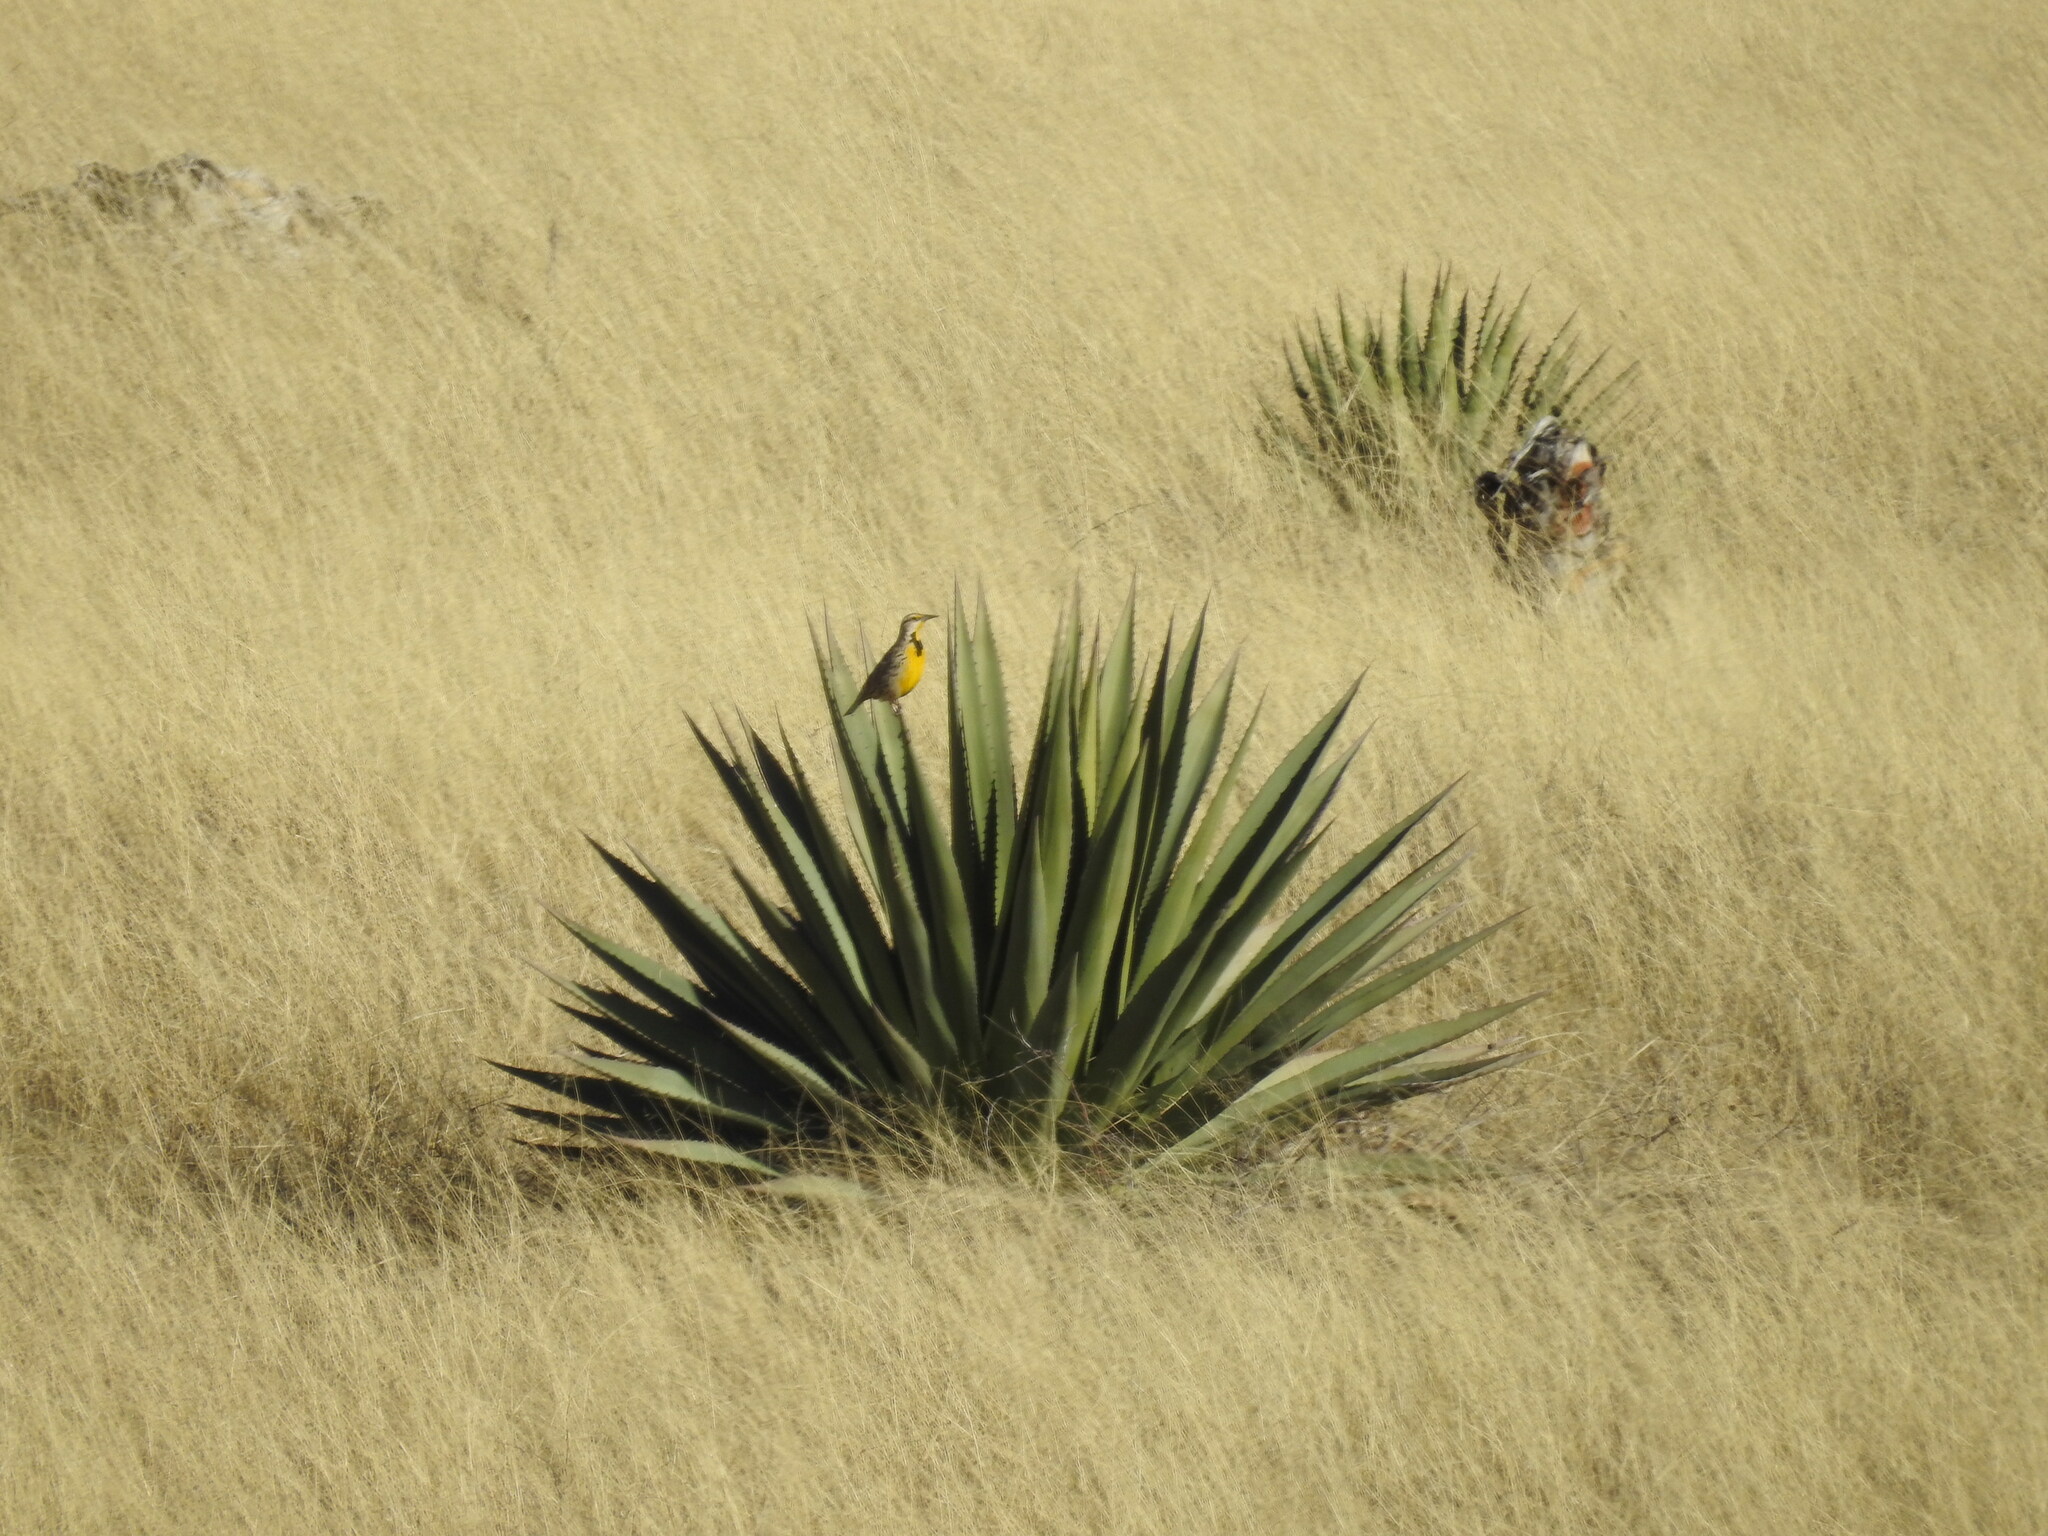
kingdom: Animalia
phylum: Chordata
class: Aves
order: Passeriformes
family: Icteridae
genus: Sturnella
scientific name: Sturnella lilianae
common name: Lilian's meadowlark
